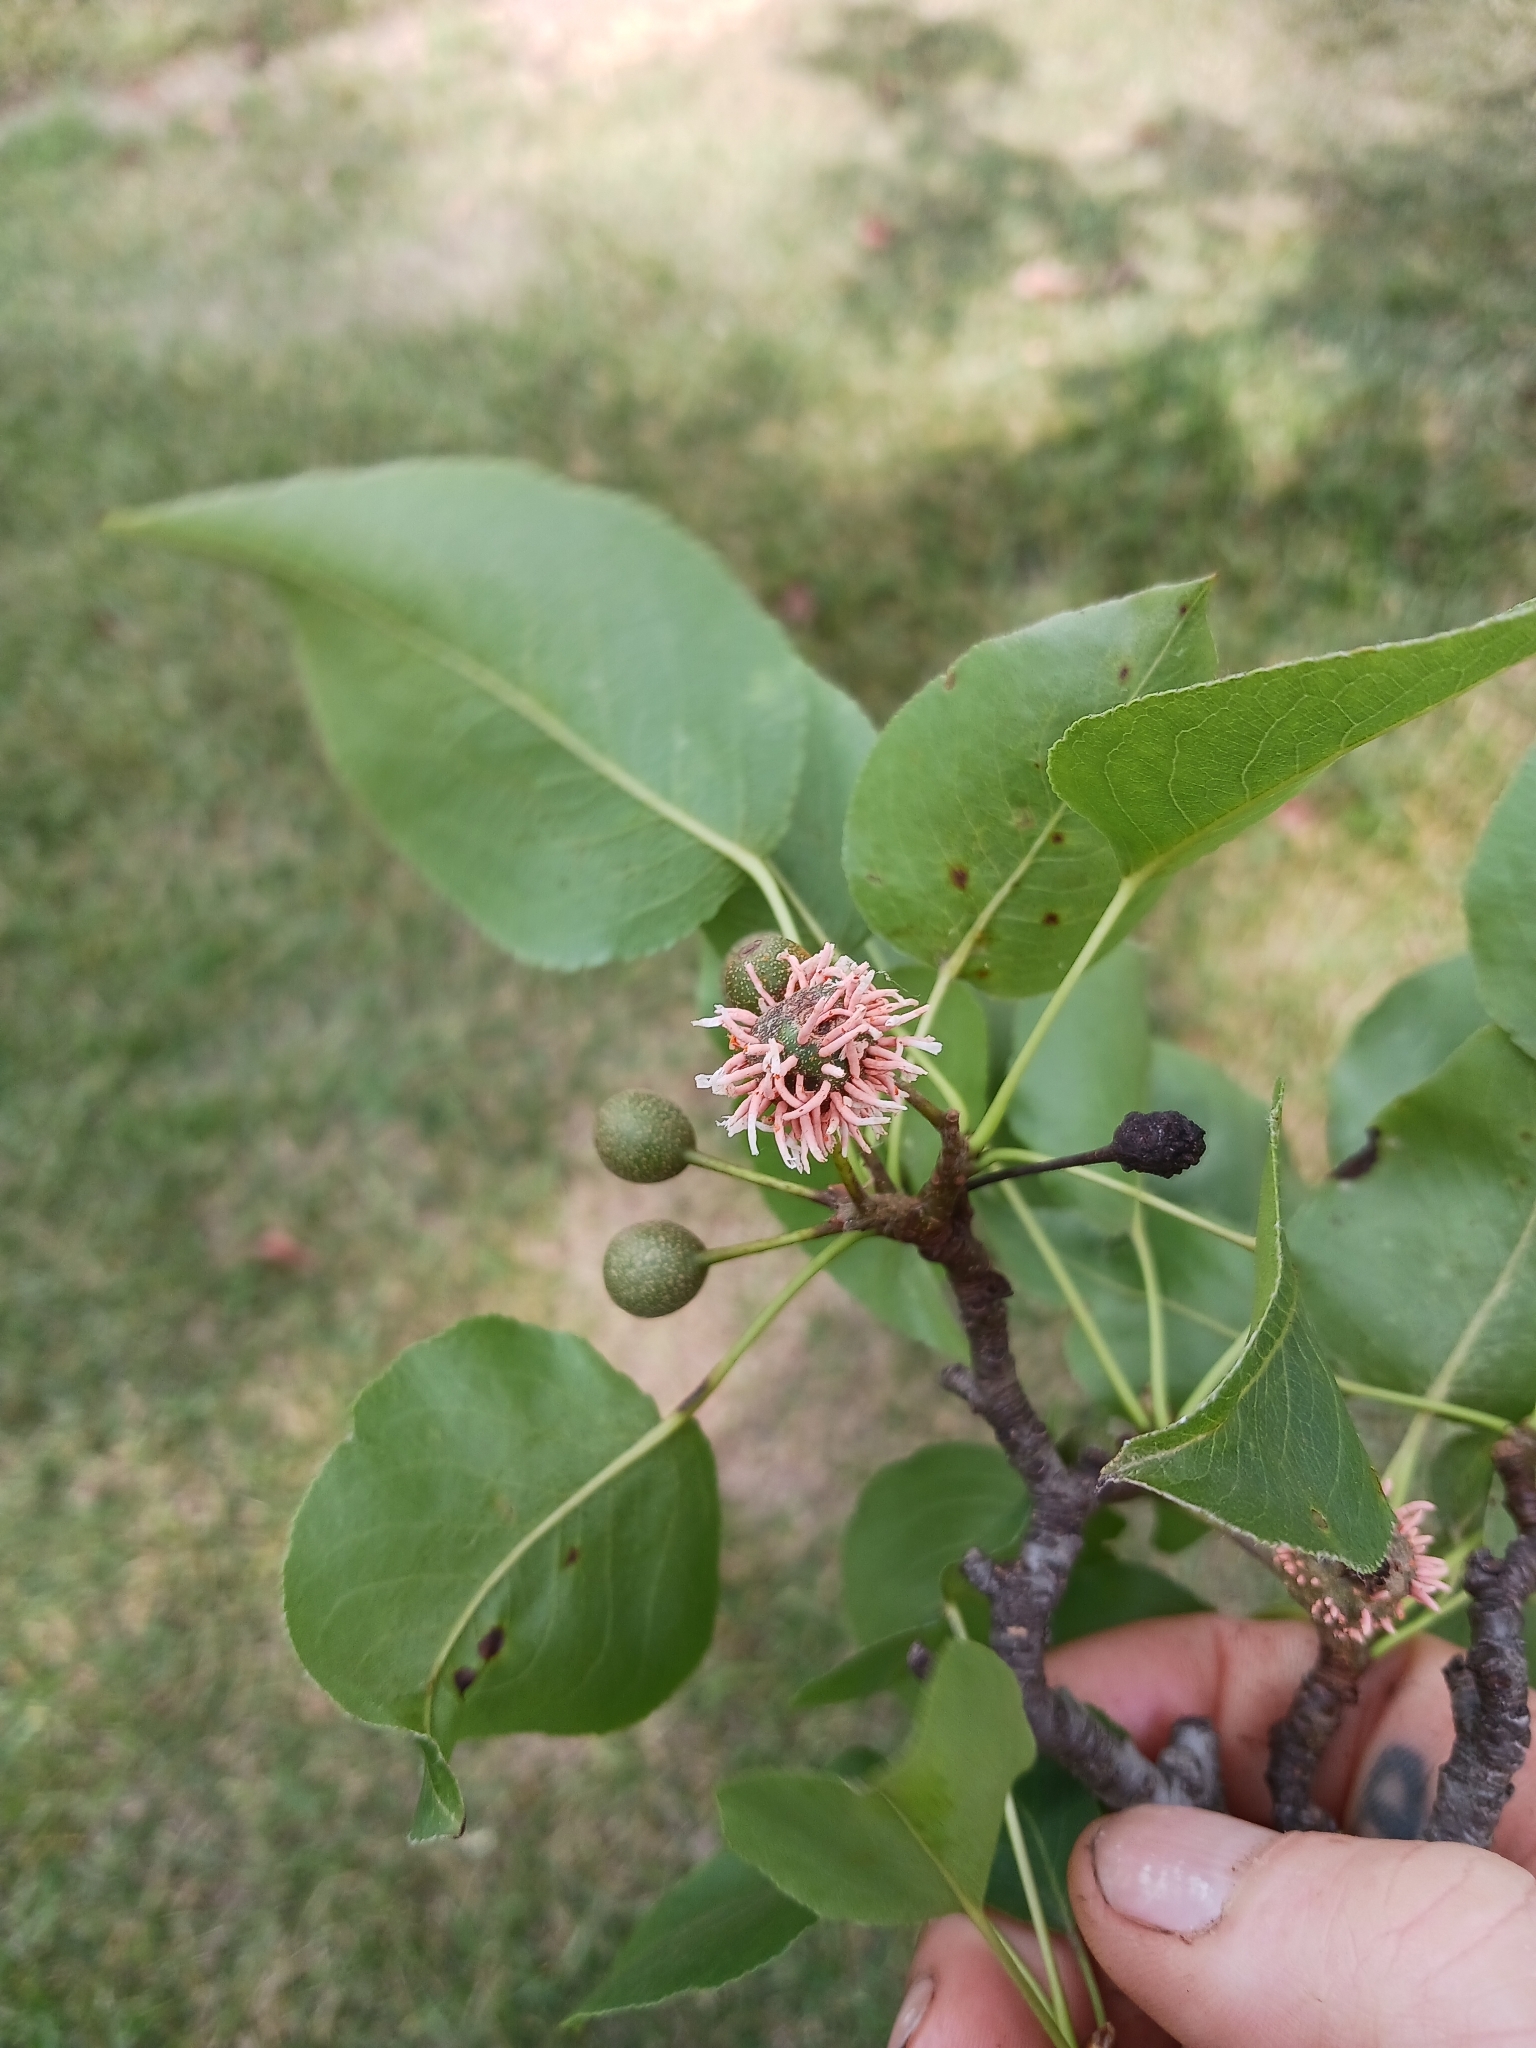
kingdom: Fungi
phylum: Basidiomycota
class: Pucciniomycetes
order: Pucciniales
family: Gymnosporangiaceae
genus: Gymnosporangium
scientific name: Gymnosporangium clavipes
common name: Quince rust
